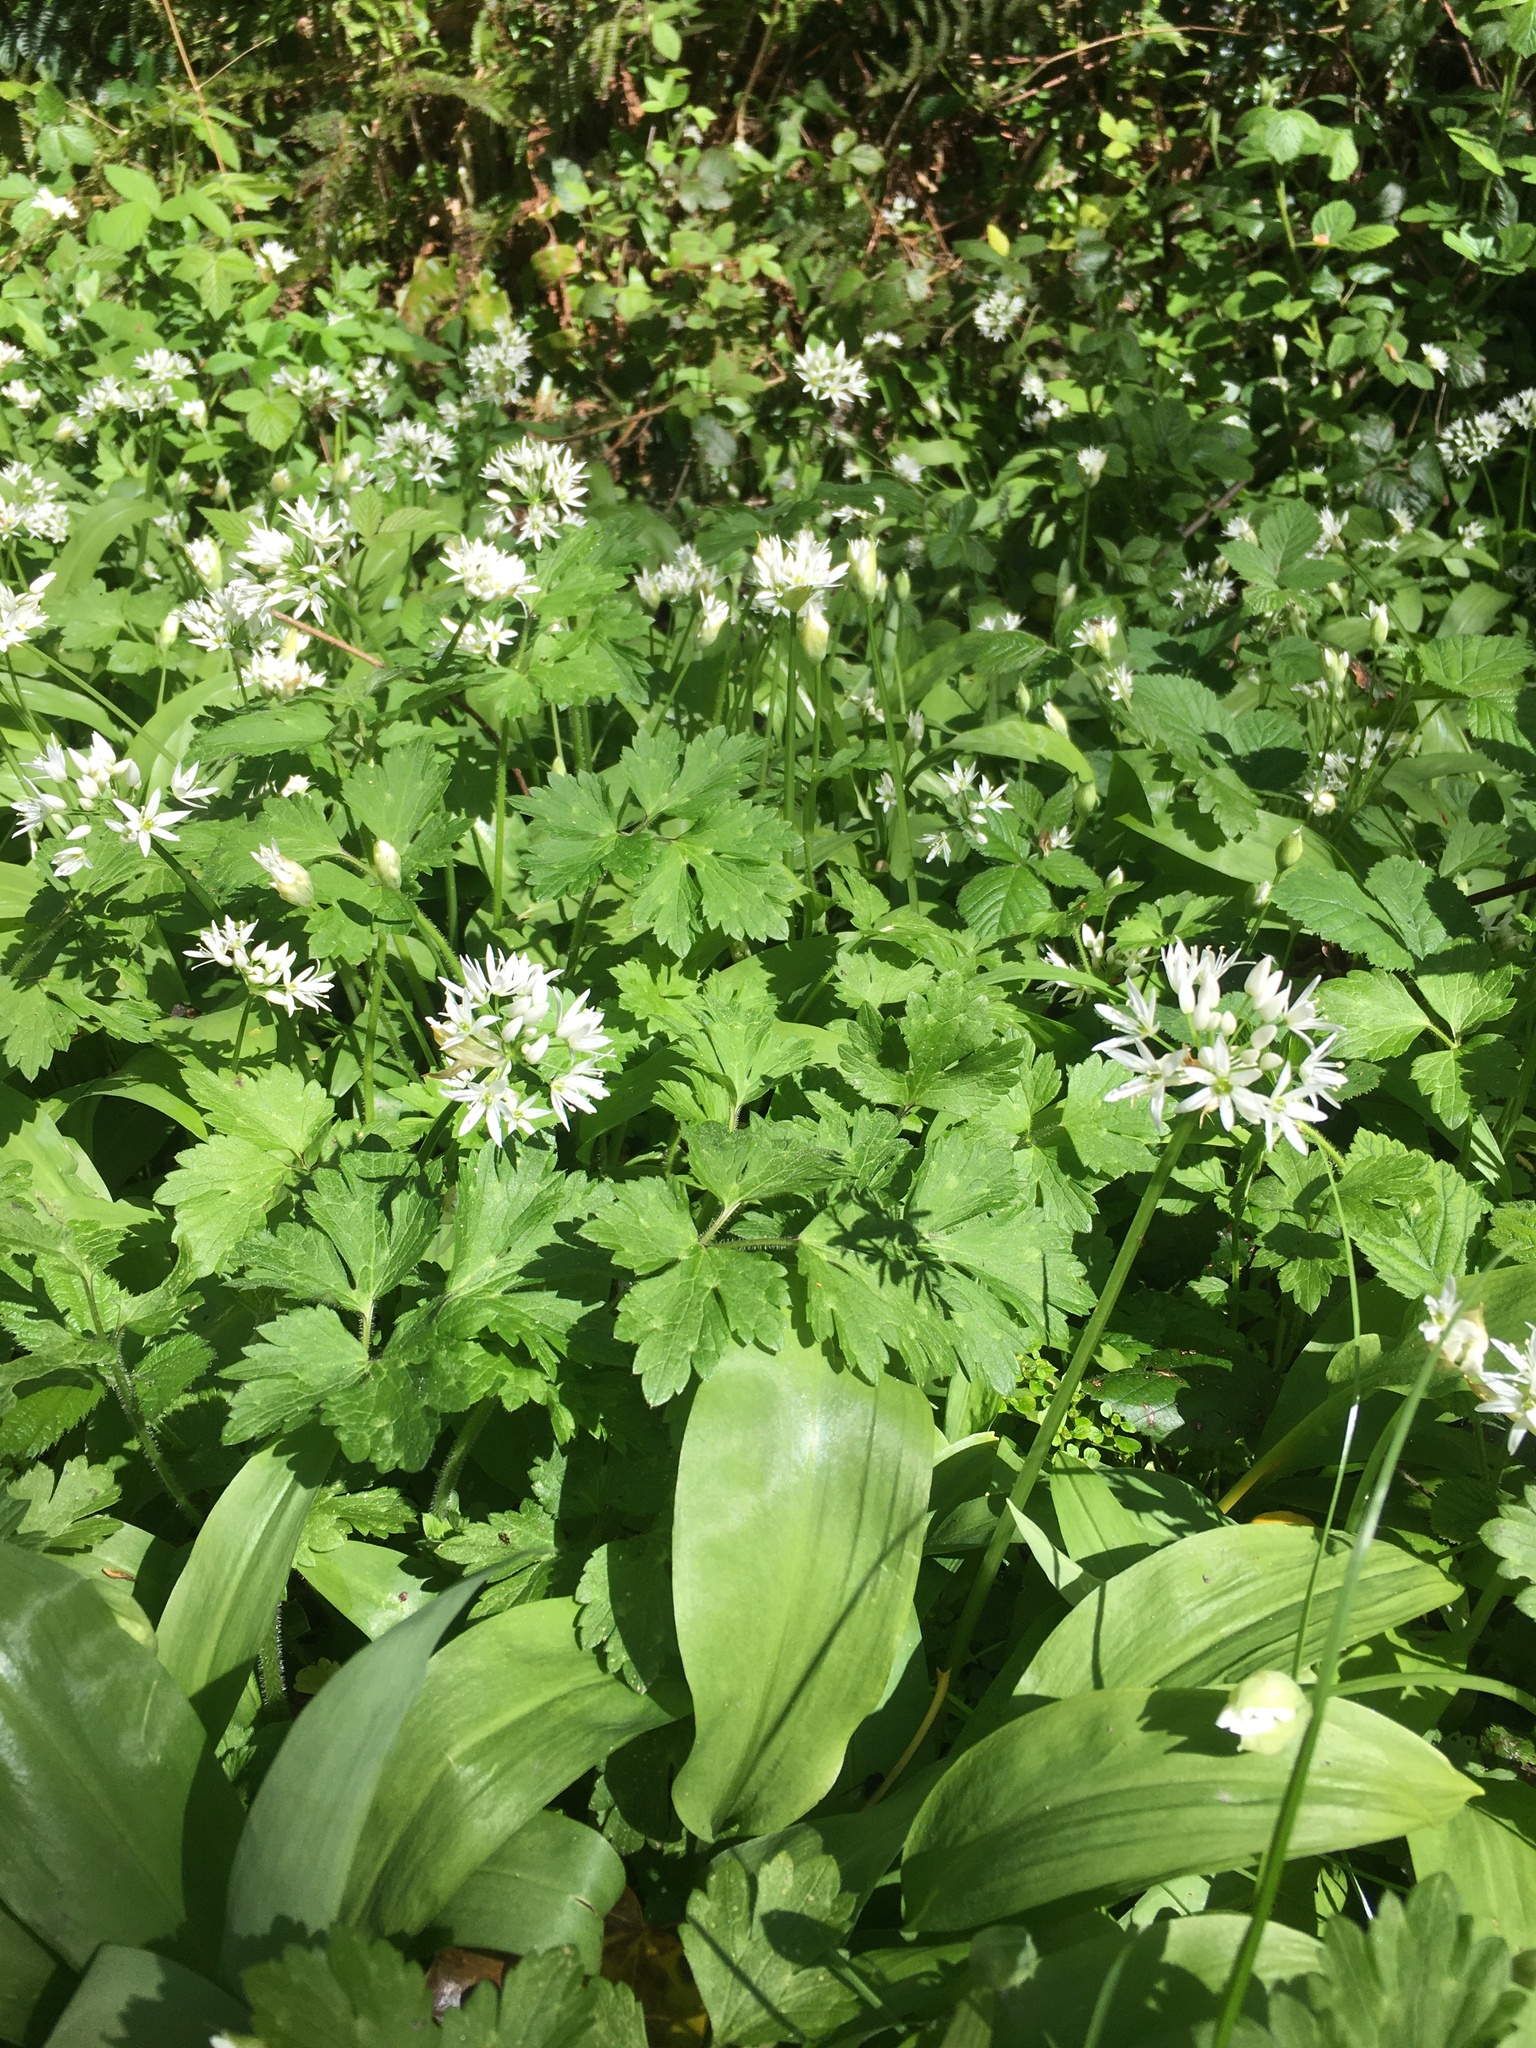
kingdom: Plantae
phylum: Tracheophyta
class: Liliopsida
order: Asparagales
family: Amaryllidaceae
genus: Allium
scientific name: Allium ursinum
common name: Ramsons
